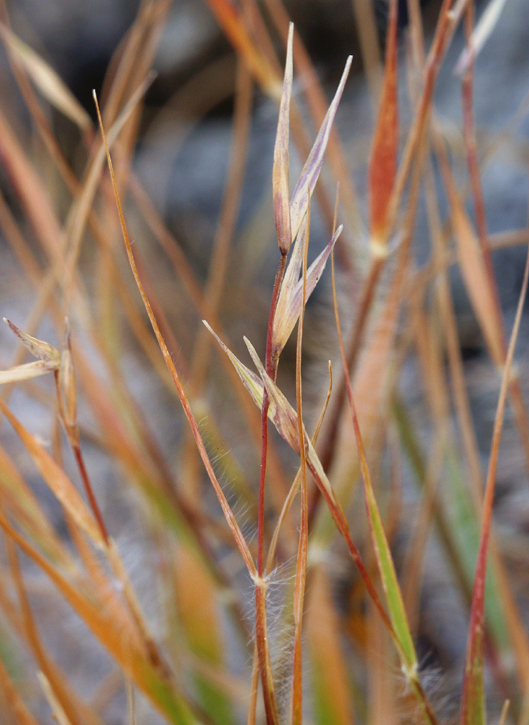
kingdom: Plantae
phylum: Tracheophyta
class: Liliopsida
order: Poales
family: Poaceae
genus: Danthonia
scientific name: Danthonia unispicata
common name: Few-flowered oatgrass
